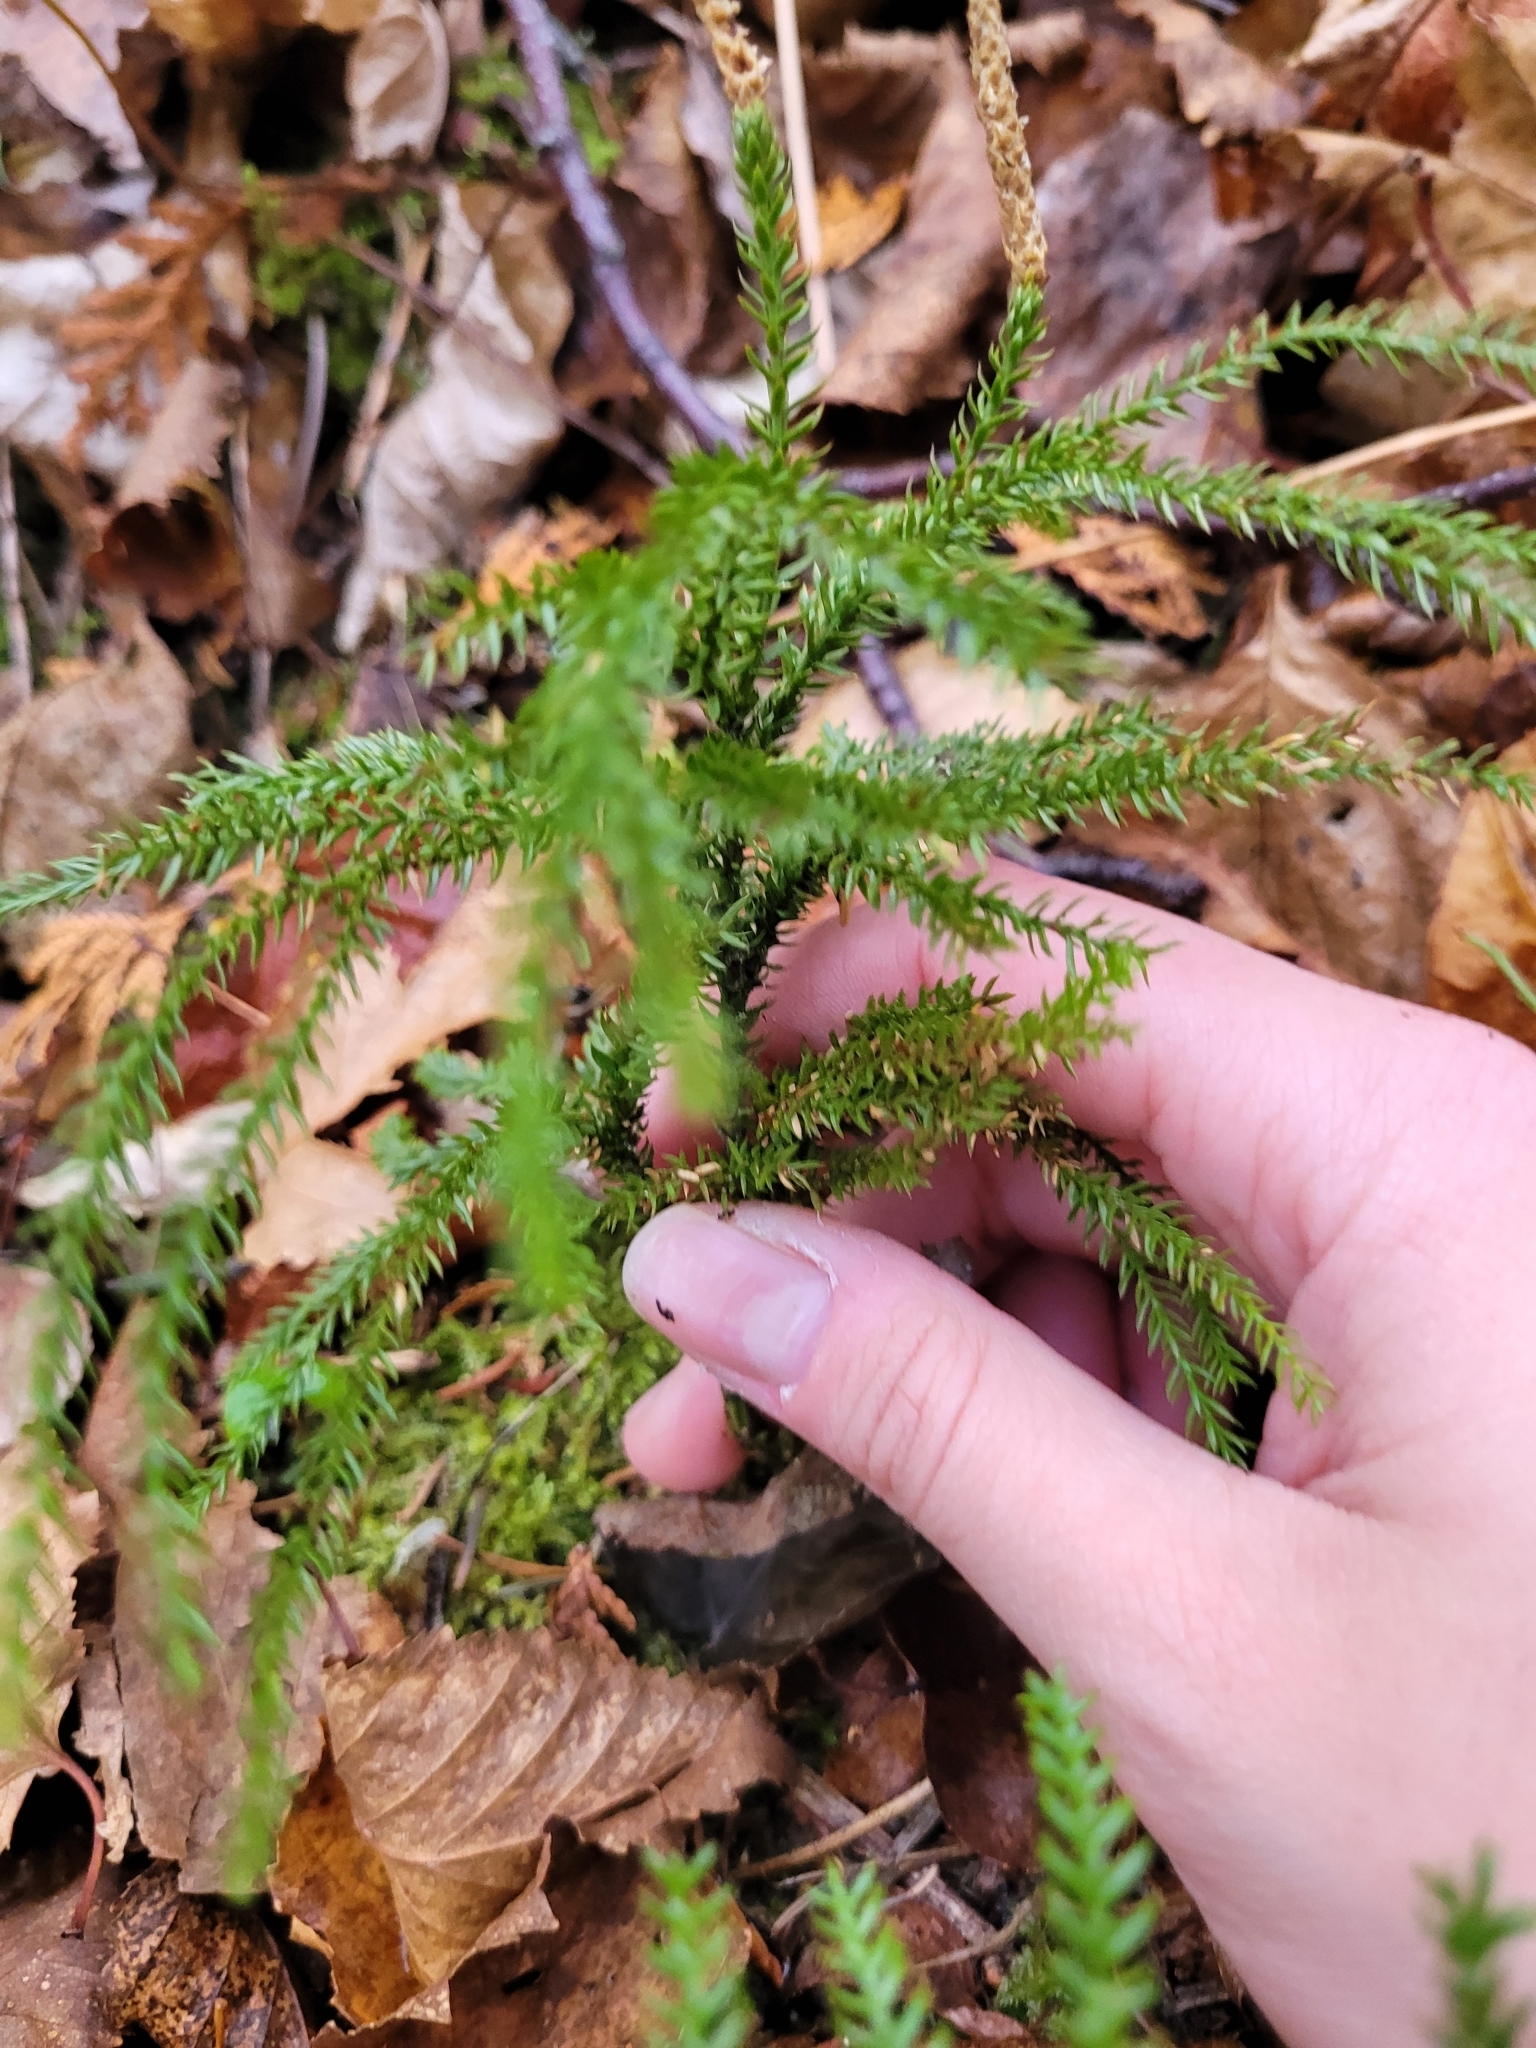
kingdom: Plantae
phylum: Tracheophyta
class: Lycopodiopsida
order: Lycopodiales
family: Lycopodiaceae
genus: Dendrolycopodium
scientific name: Dendrolycopodium dendroideum
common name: Northern tree-clubmoss
